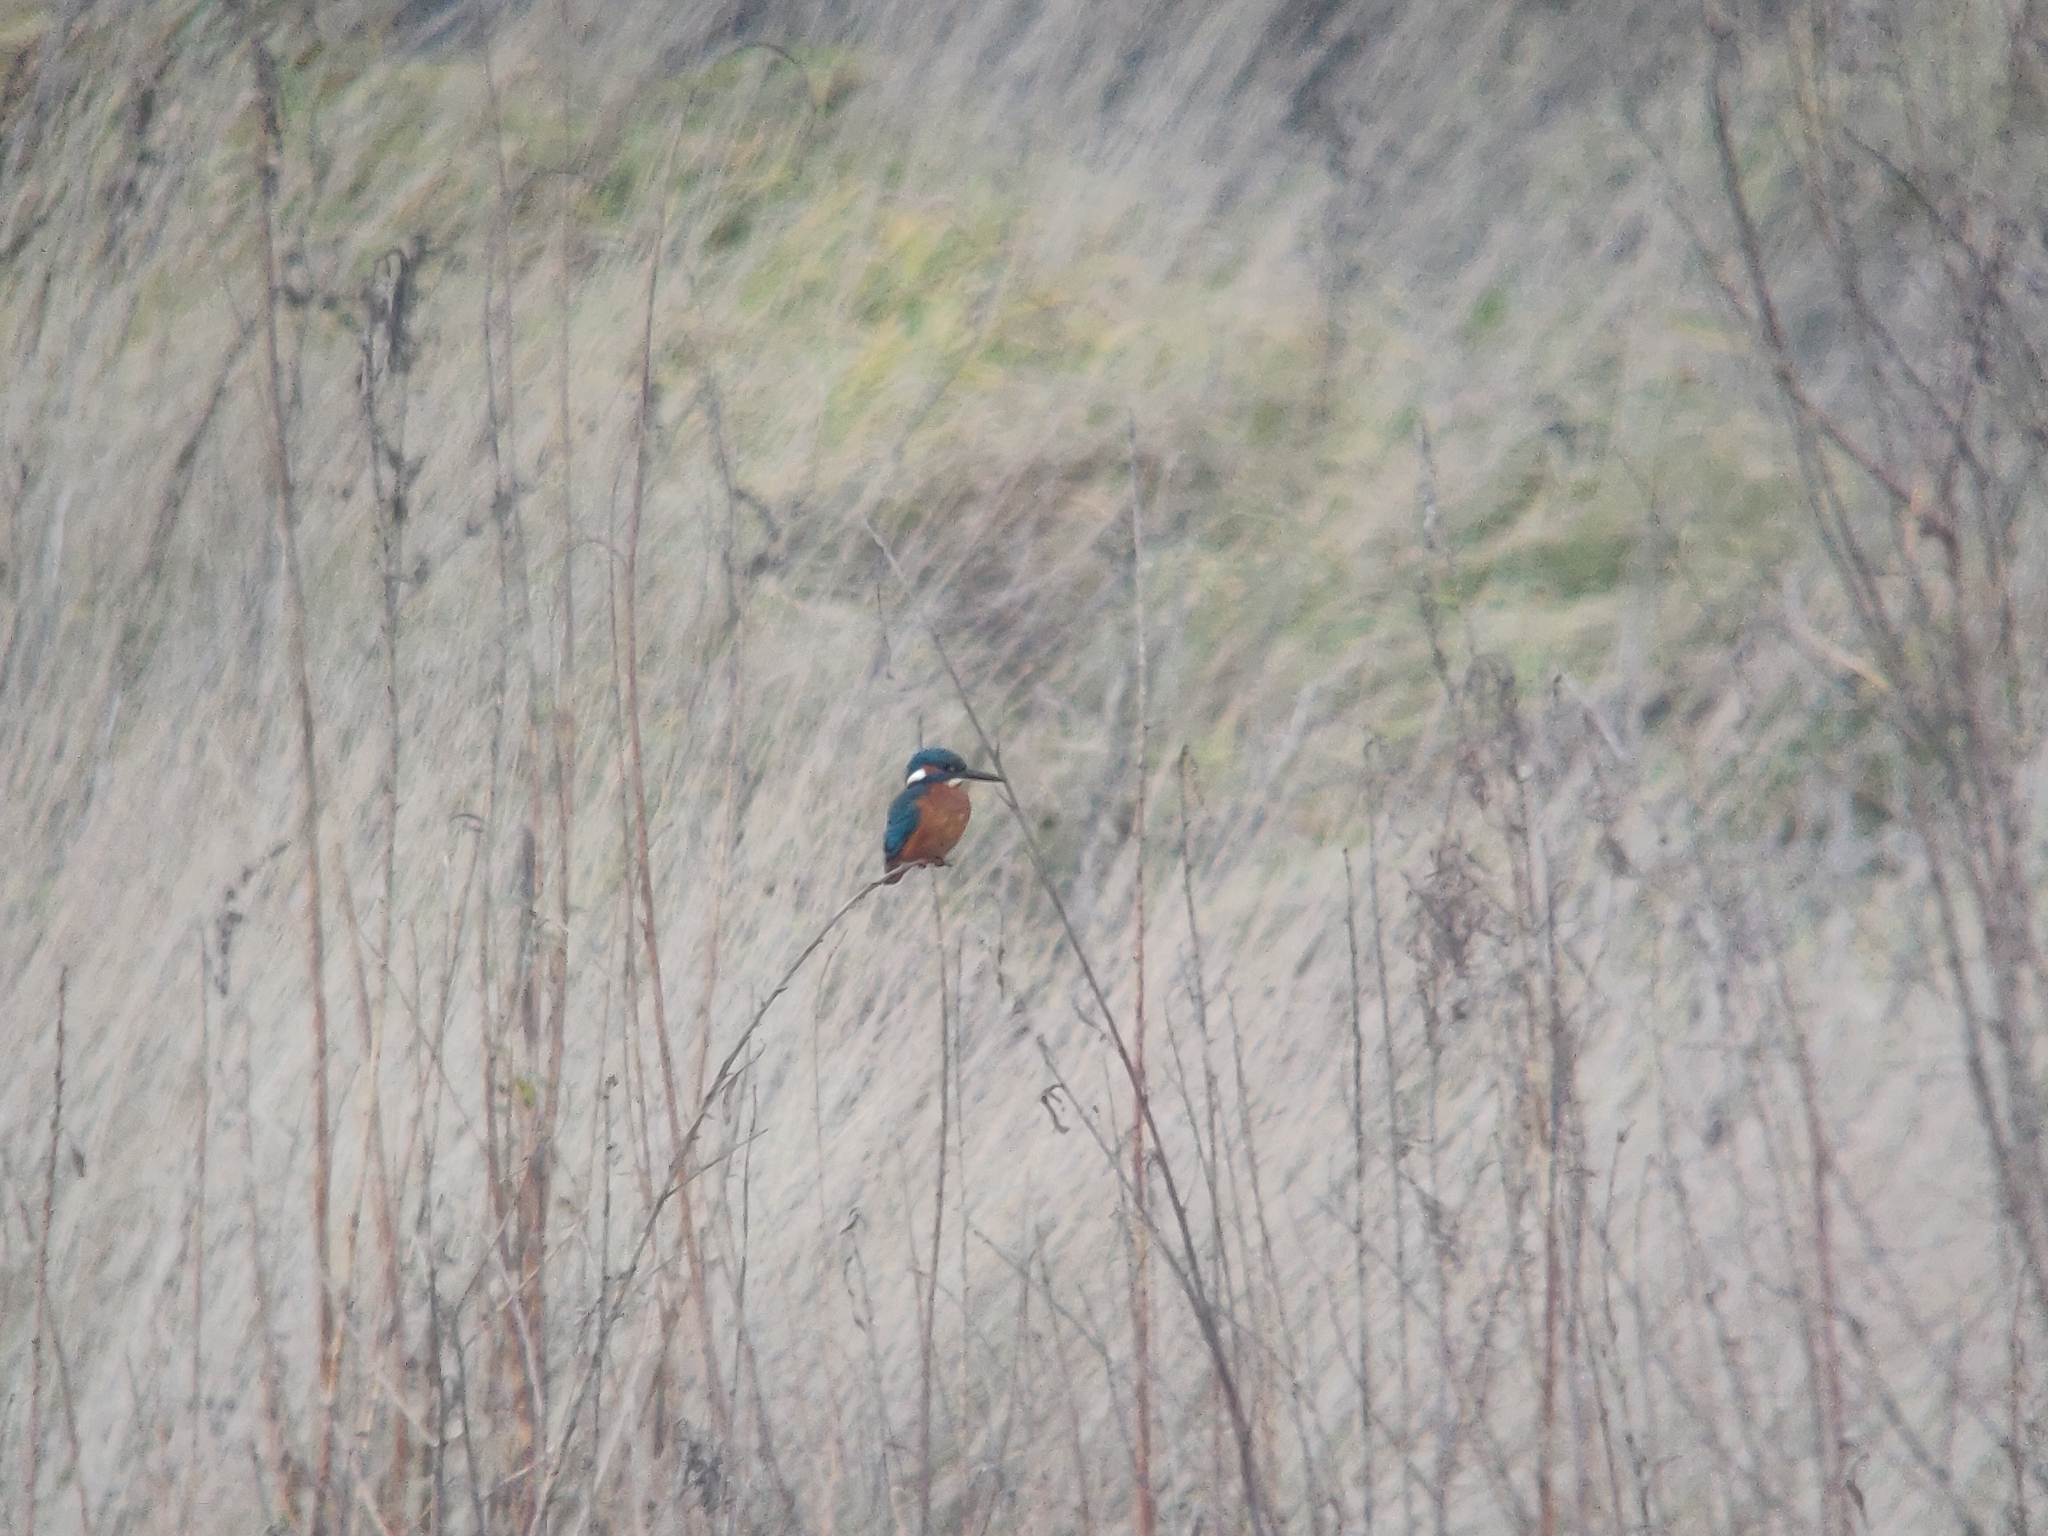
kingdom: Animalia
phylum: Chordata
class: Aves
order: Coraciiformes
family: Alcedinidae
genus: Alcedo
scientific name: Alcedo atthis
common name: Common kingfisher
